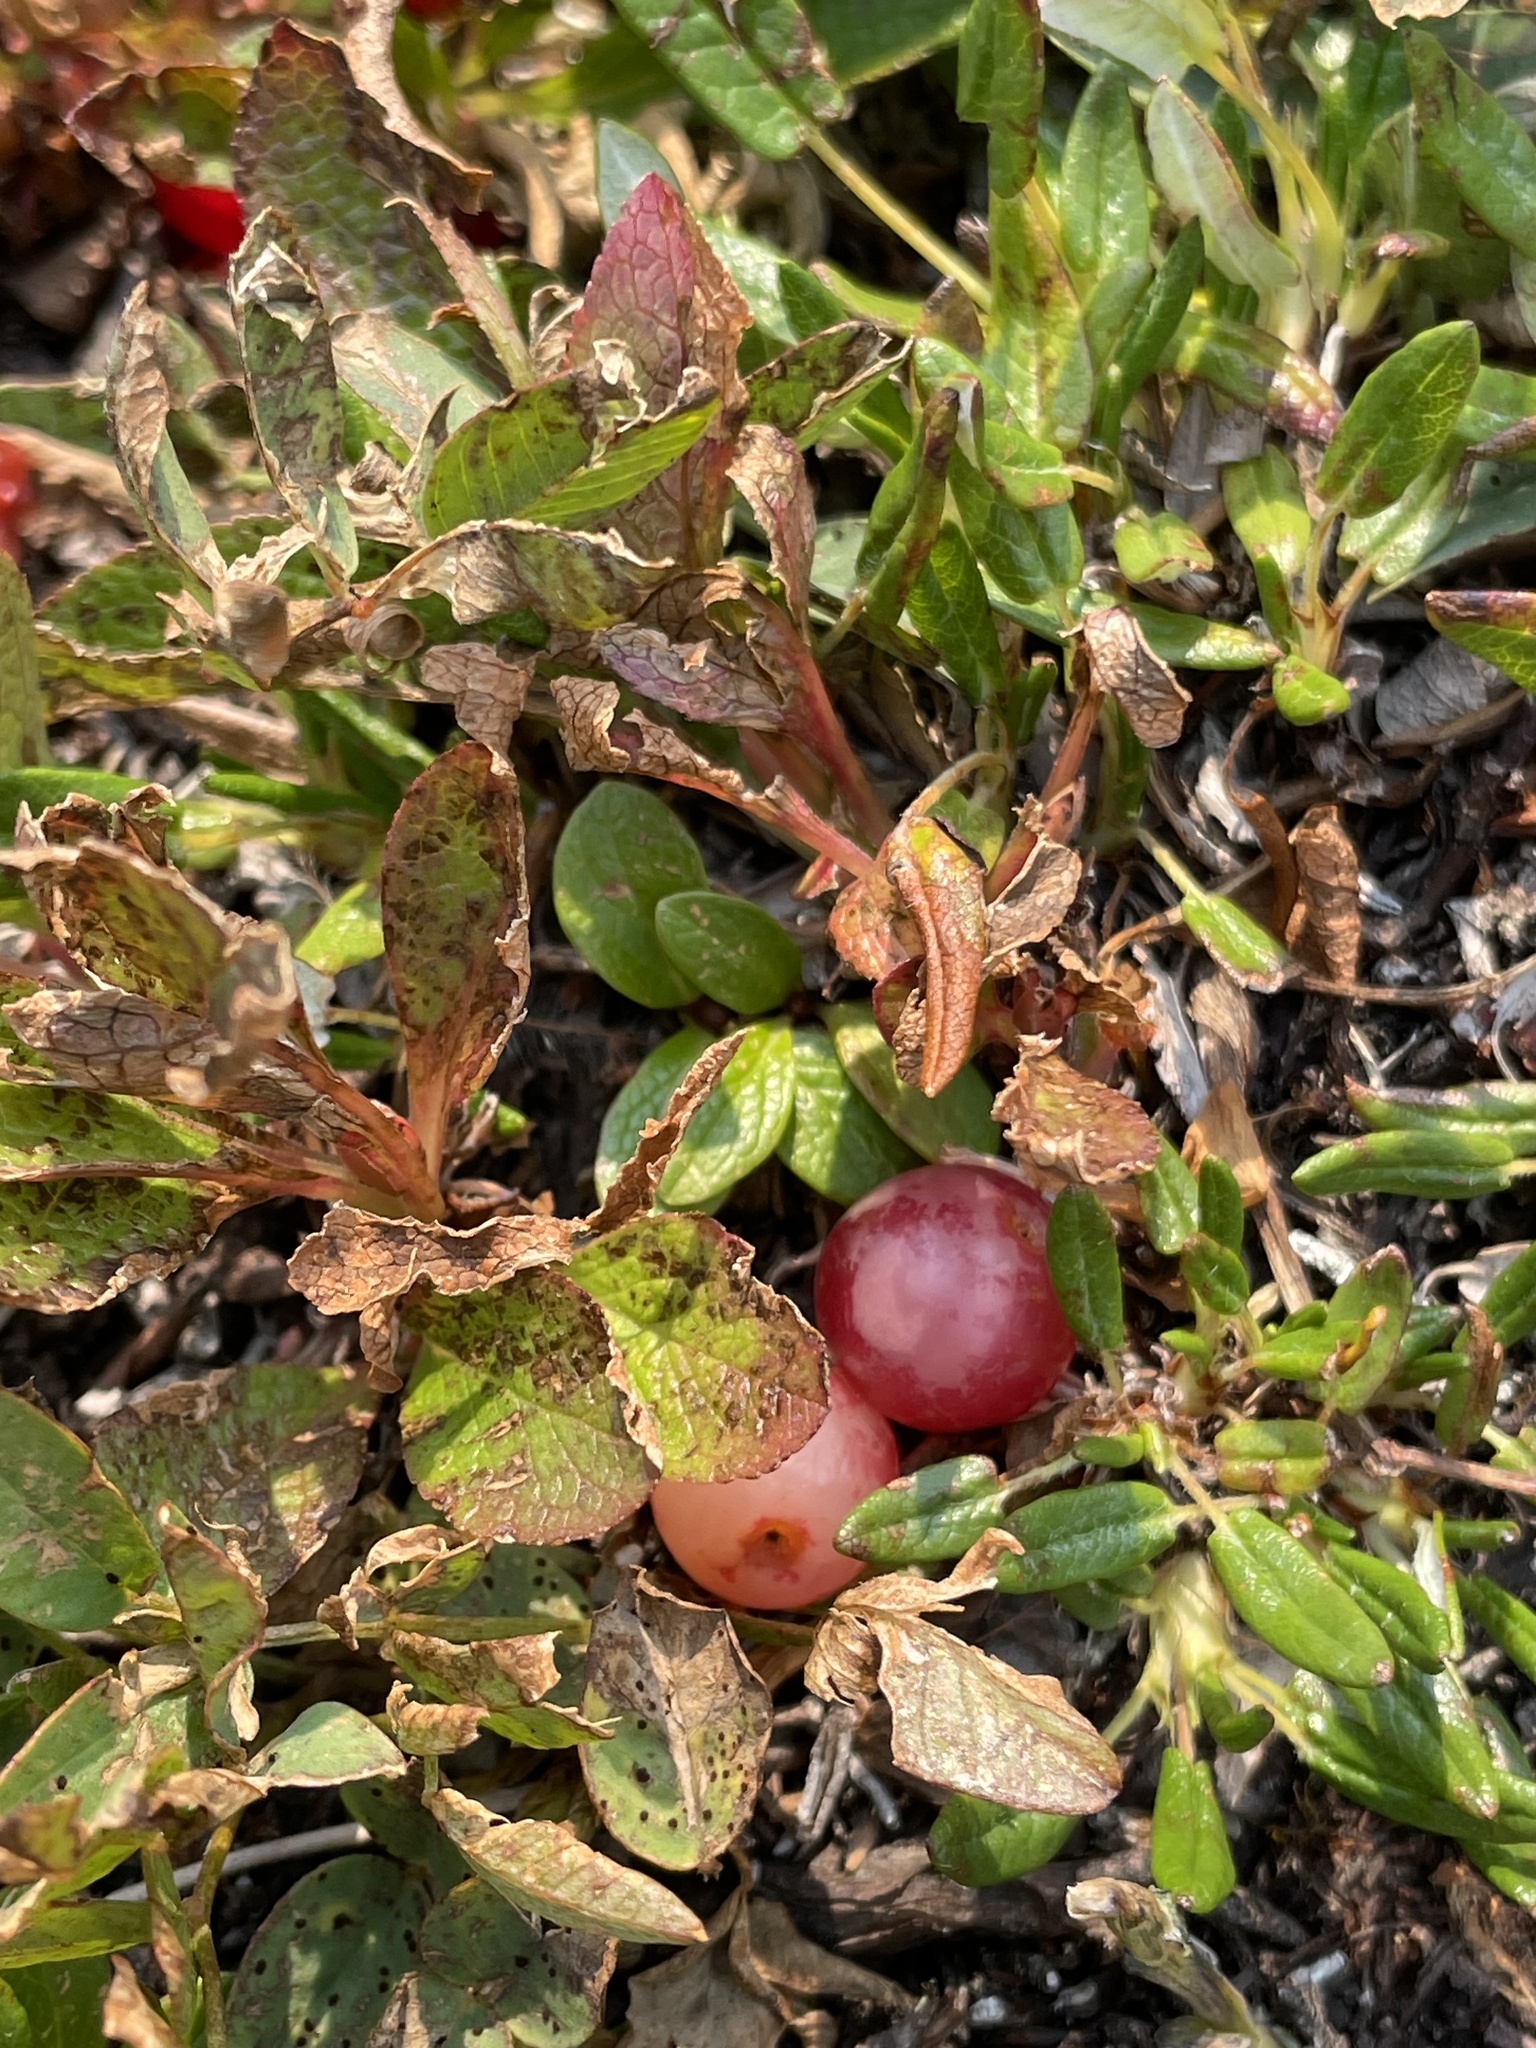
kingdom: Plantae
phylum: Tracheophyta
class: Magnoliopsida
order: Ericales
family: Ericaceae
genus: Arctostaphylos
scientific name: Arctostaphylos rubra
